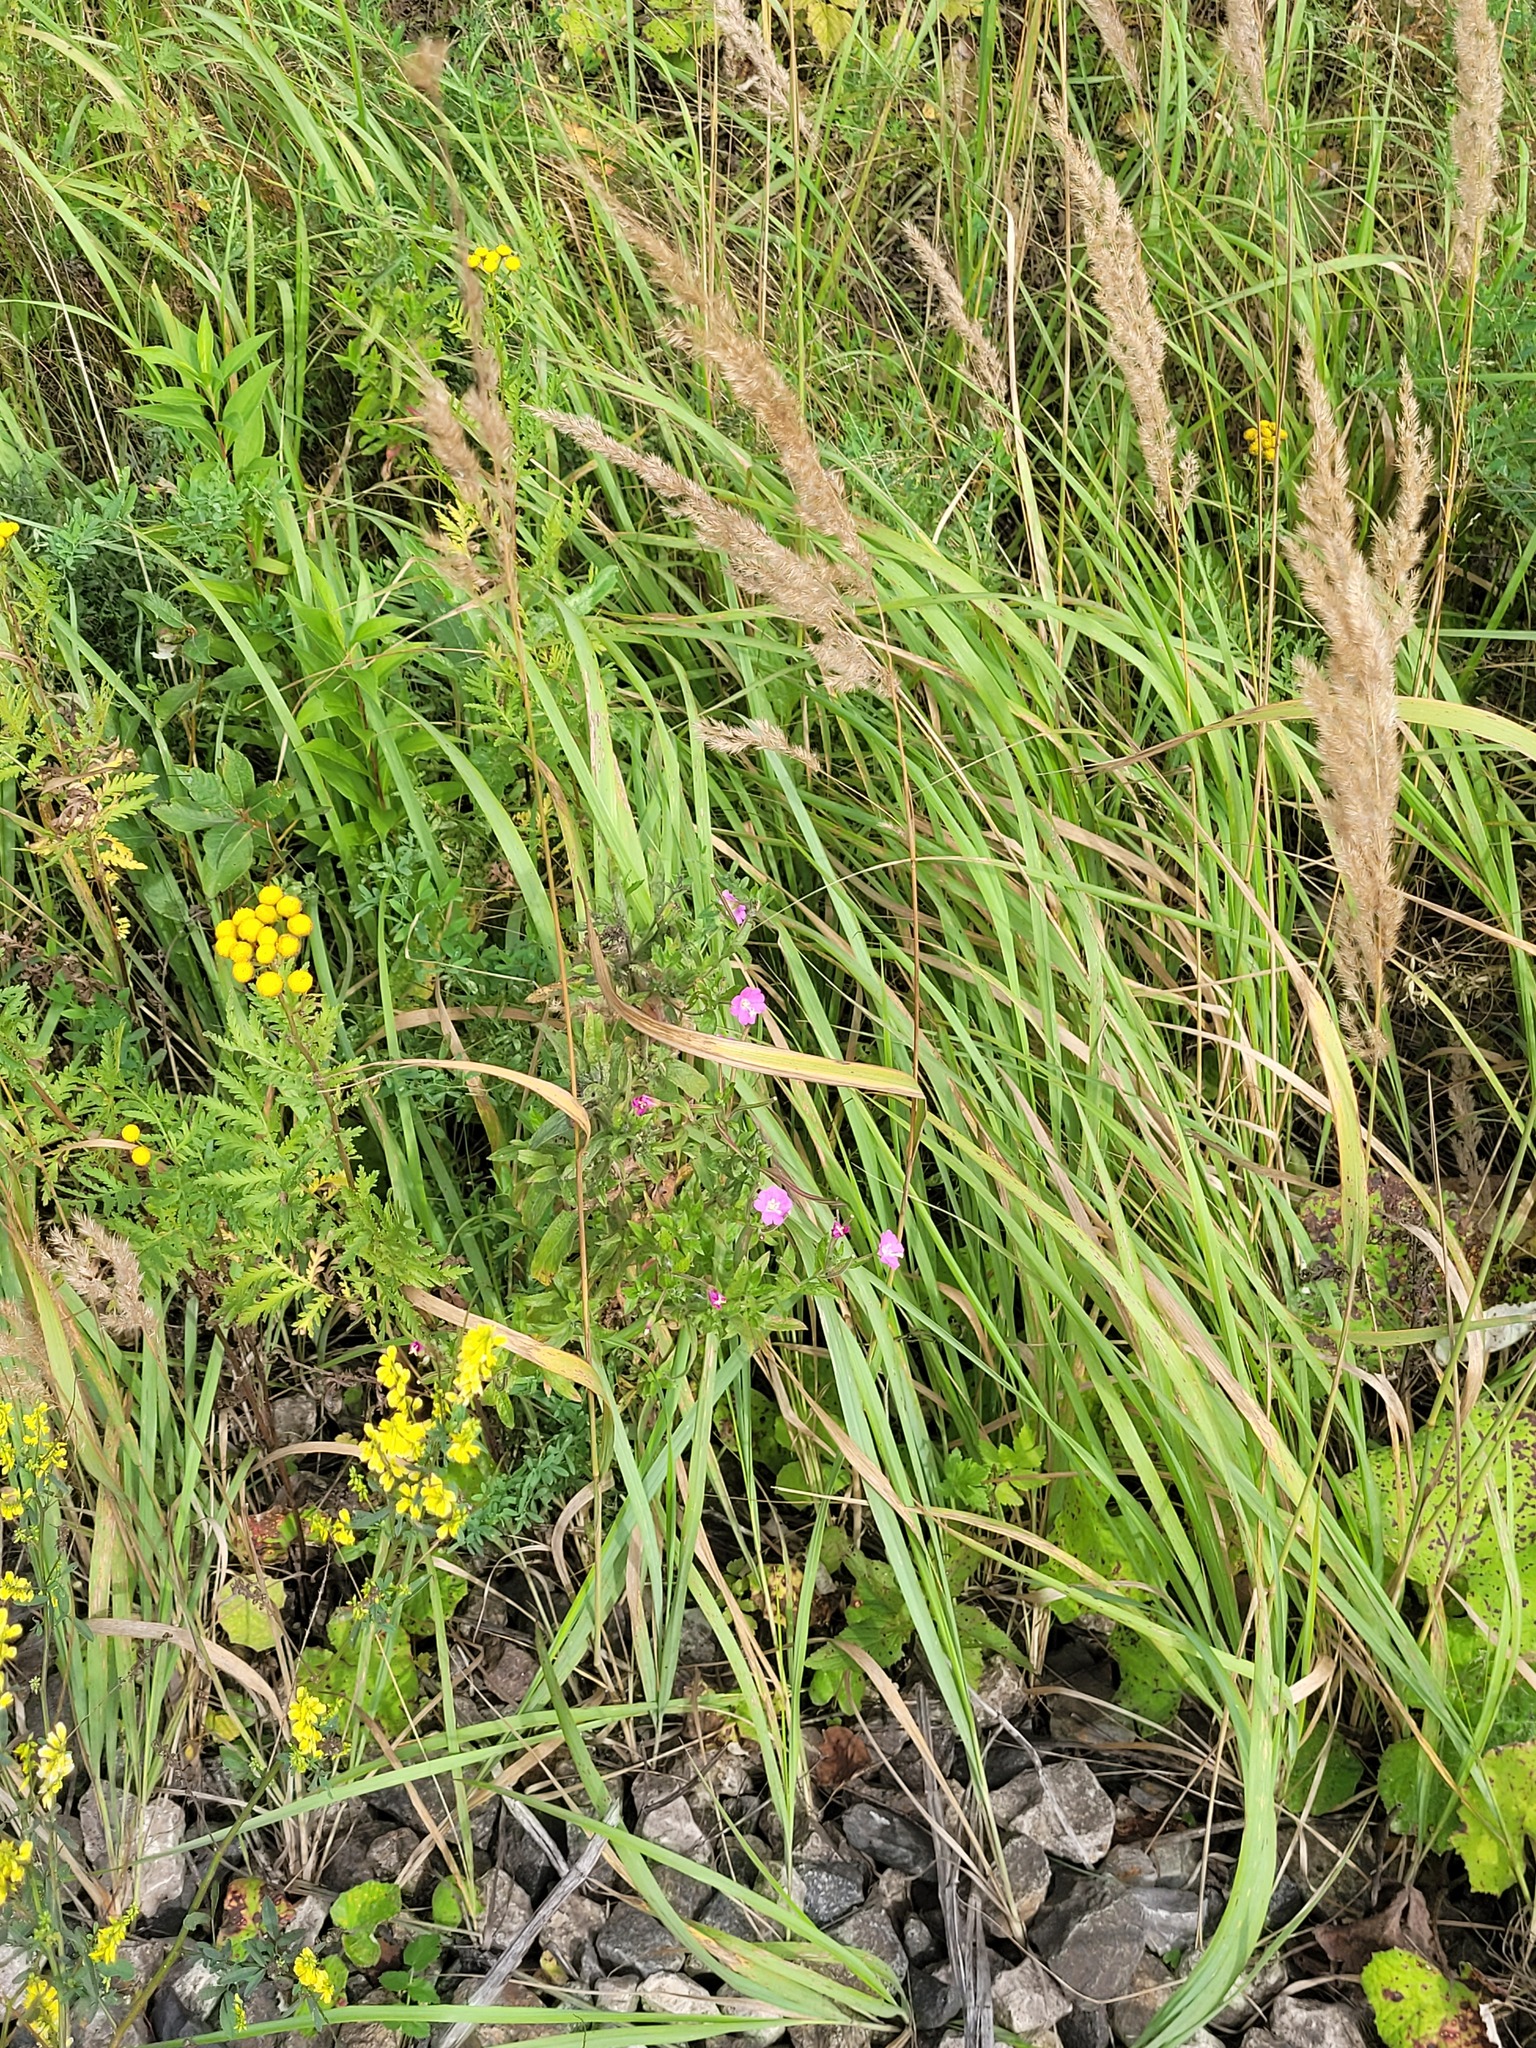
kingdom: Plantae
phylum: Tracheophyta
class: Magnoliopsida
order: Myrtales
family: Onagraceae
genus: Epilobium
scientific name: Epilobium hirsutum
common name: Great willowherb
